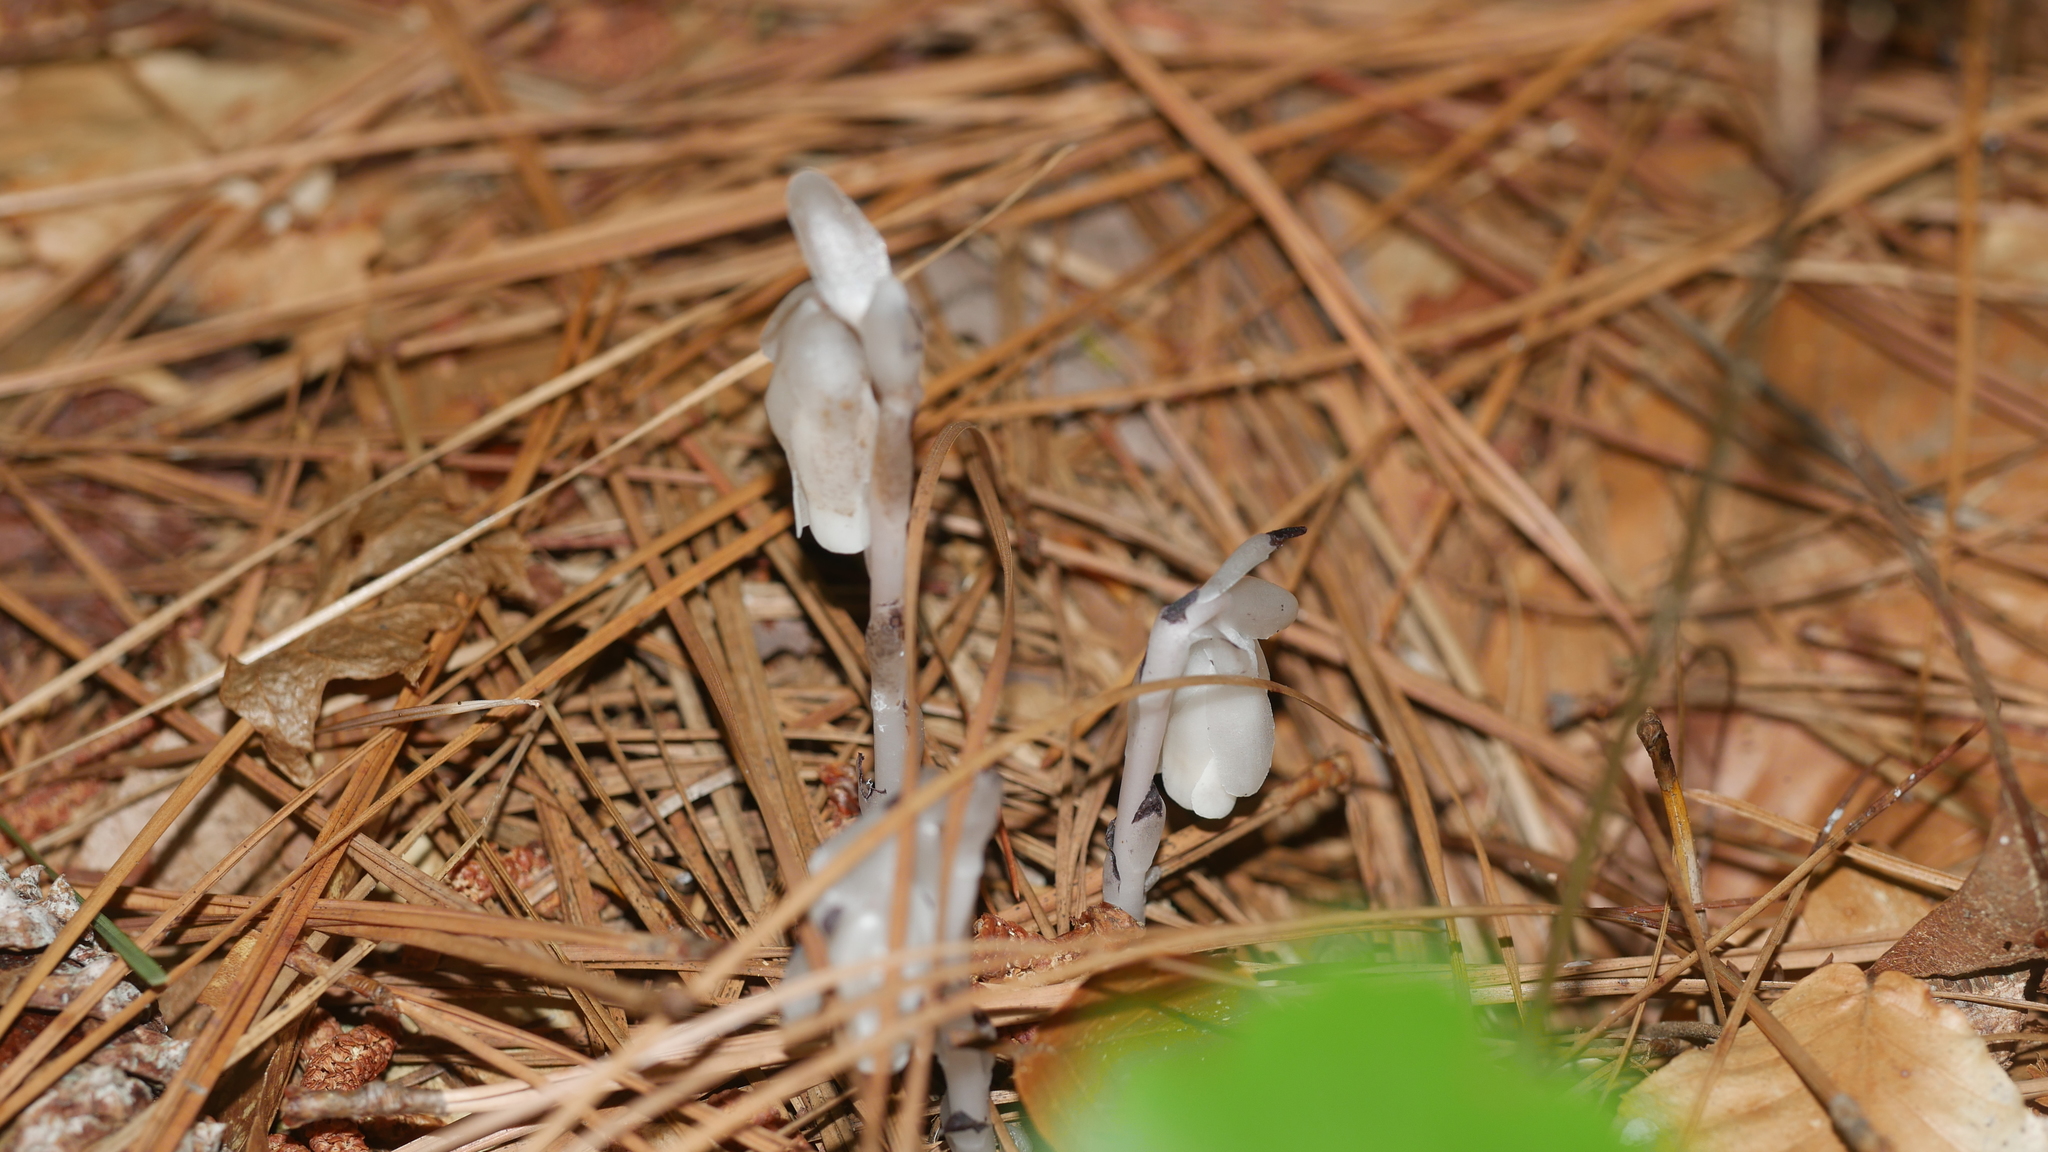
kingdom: Plantae
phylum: Tracheophyta
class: Magnoliopsida
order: Ericales
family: Ericaceae
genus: Monotropa
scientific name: Monotropa uniflora
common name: Convulsion root
